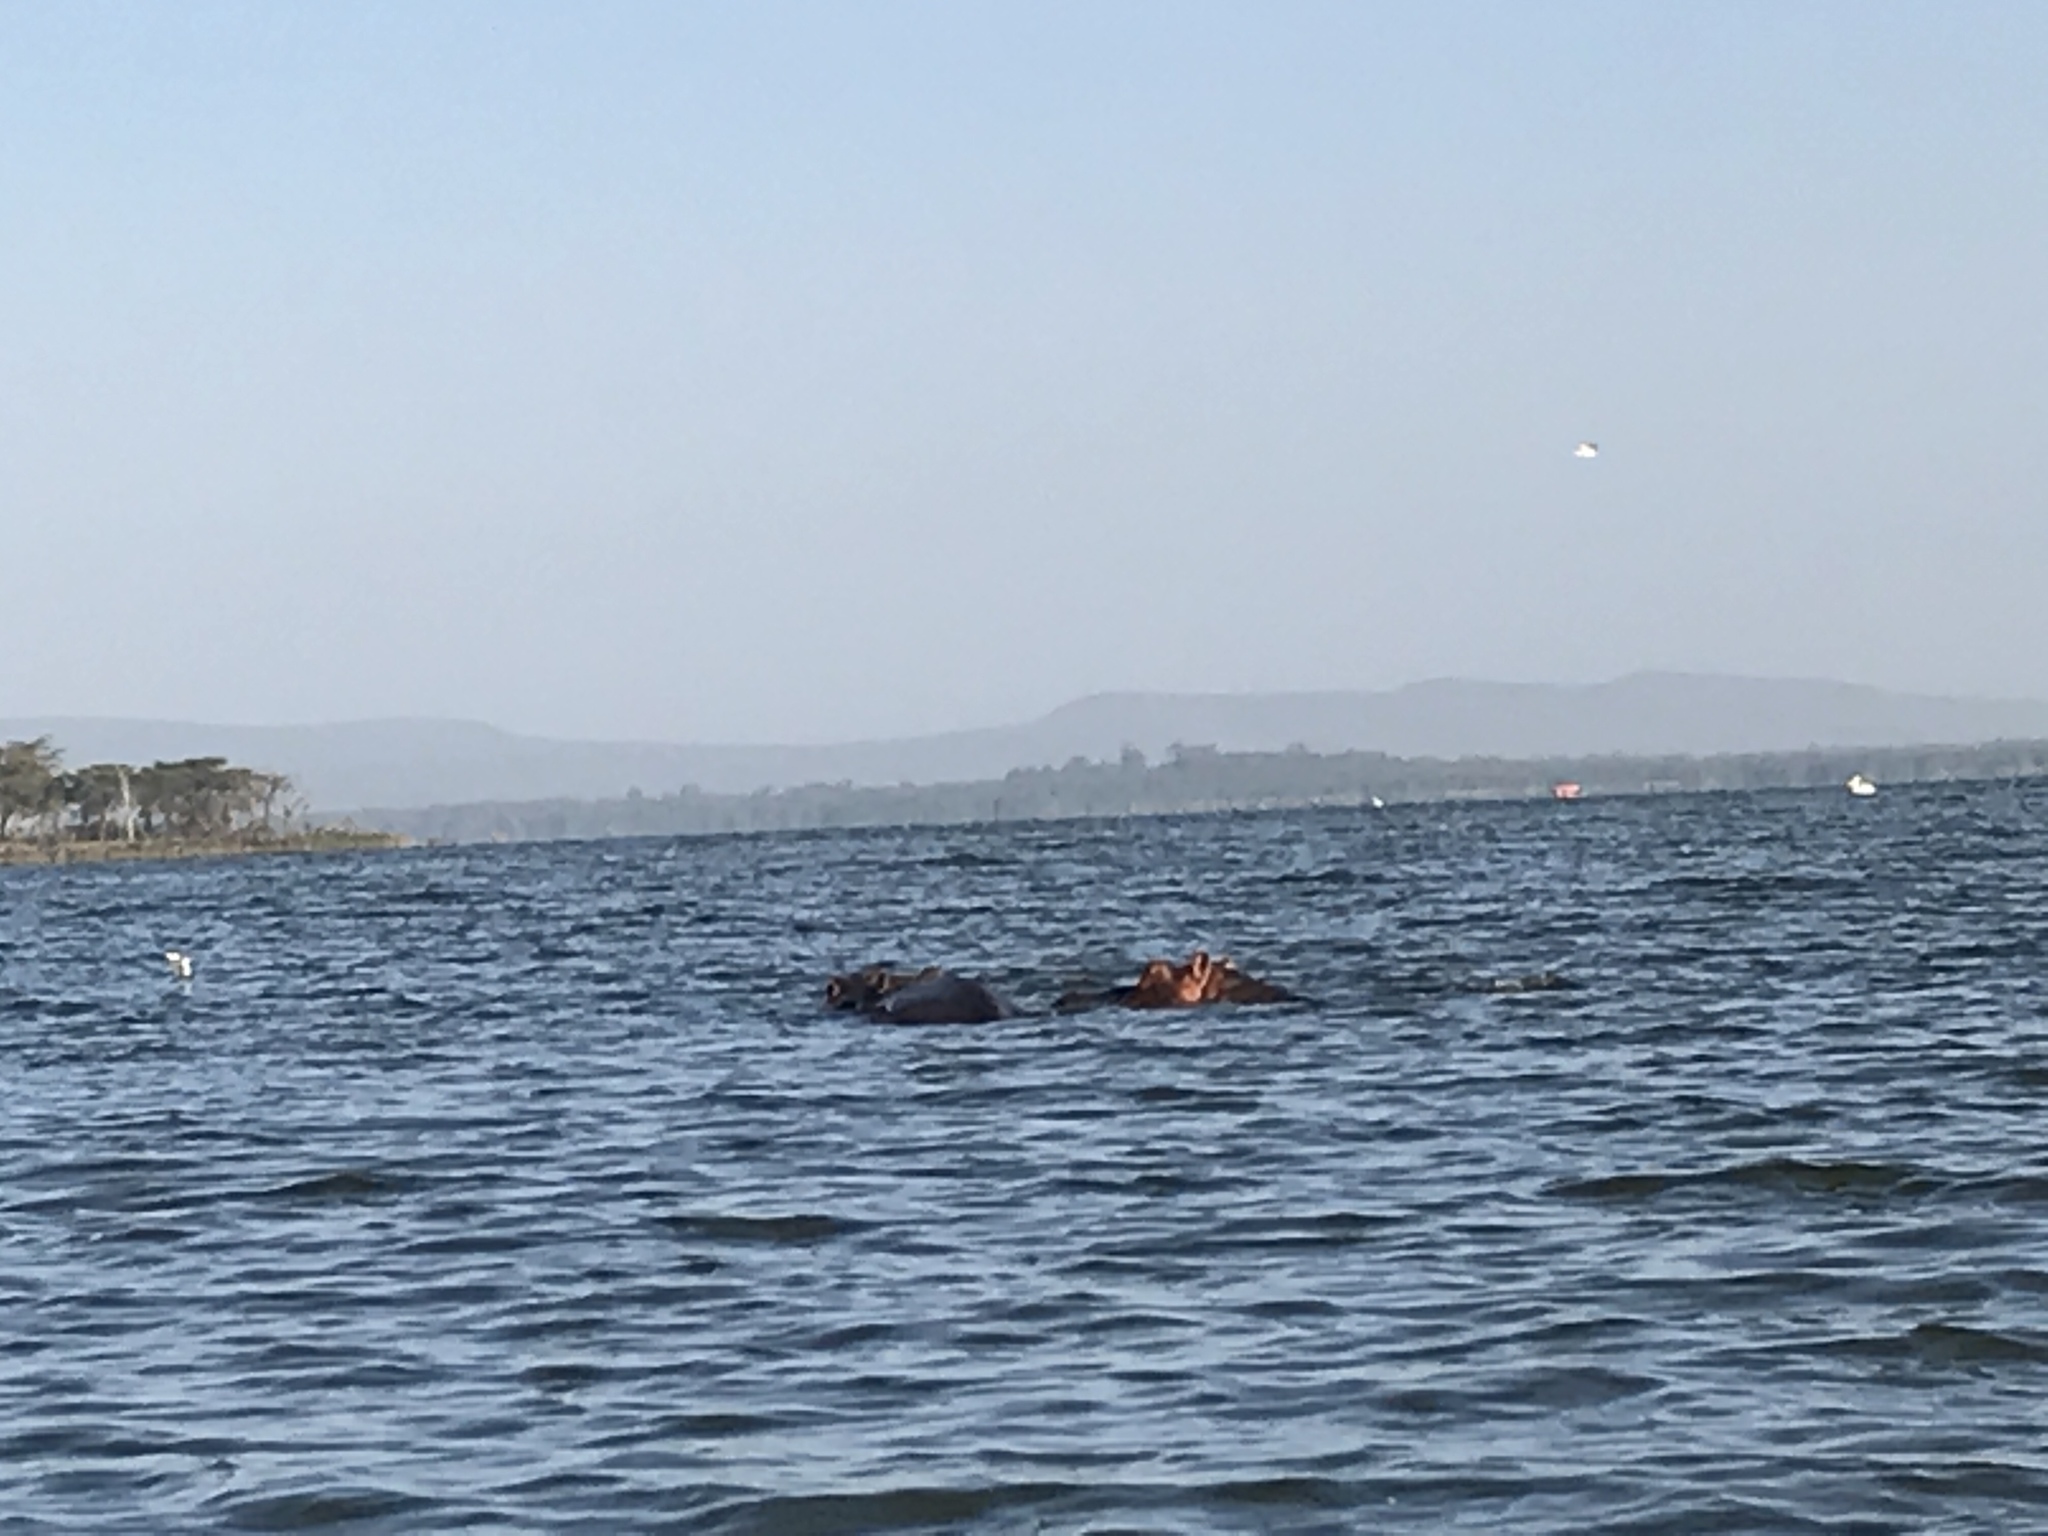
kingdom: Animalia
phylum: Chordata
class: Mammalia
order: Artiodactyla
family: Hippopotamidae
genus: Hippopotamus
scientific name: Hippopotamus amphibius
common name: Common hippopotamus
